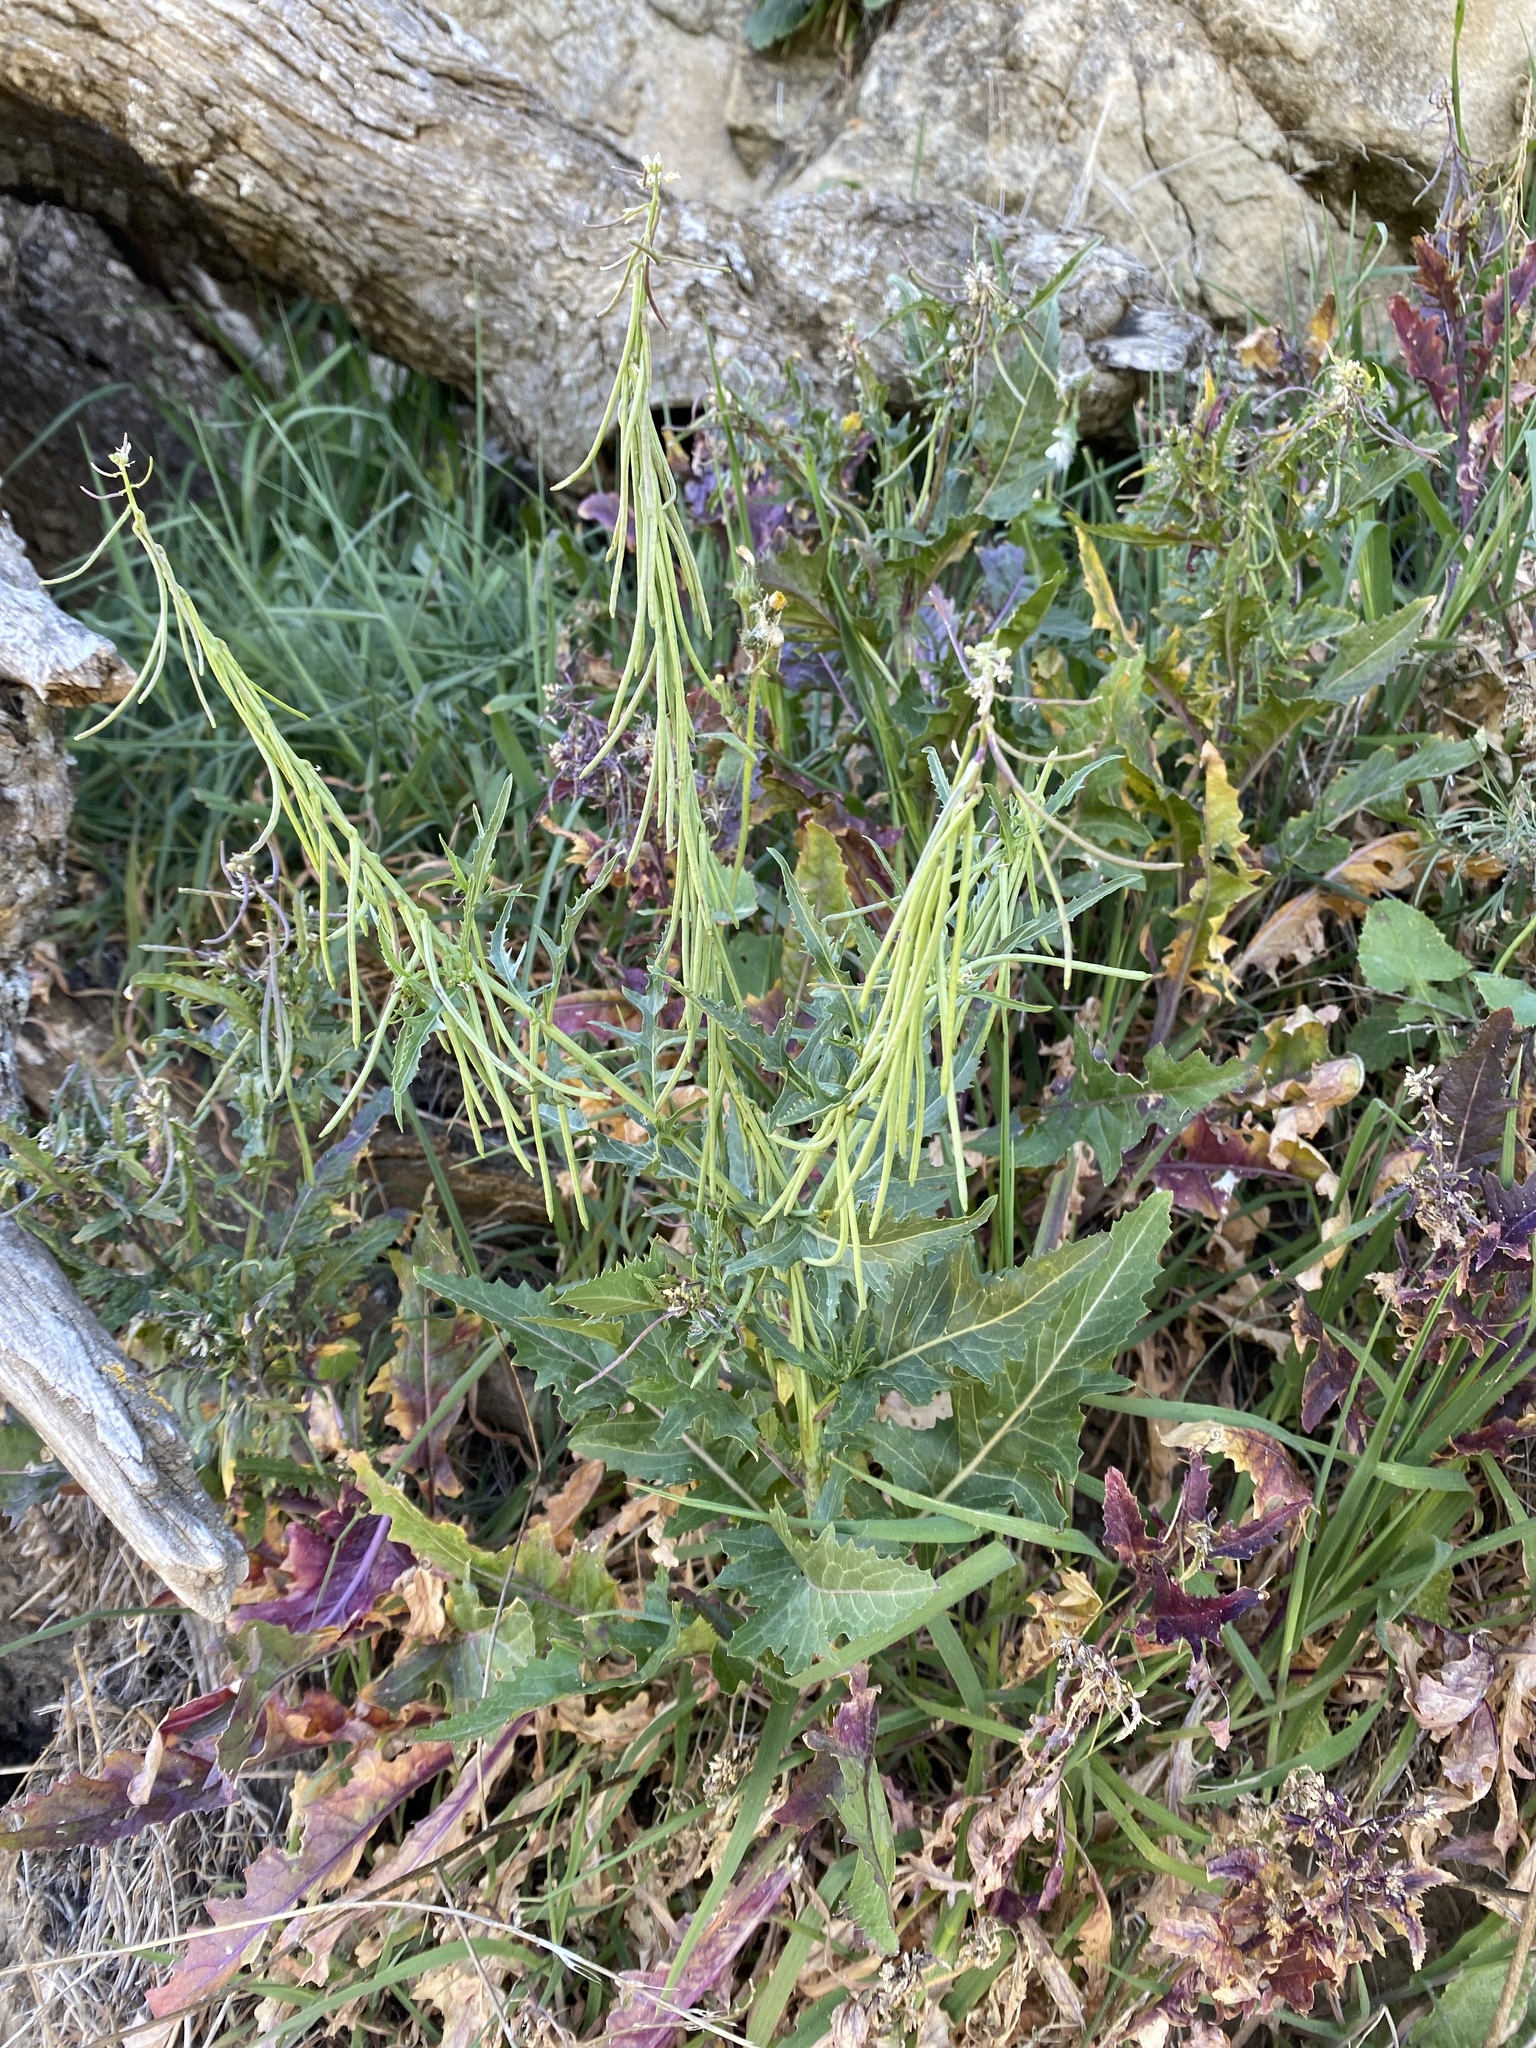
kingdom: Plantae
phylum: Tracheophyta
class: Magnoliopsida
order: Brassicales
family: Brassicaceae
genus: Streptanthus
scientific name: Streptanthus lasiophyllus
